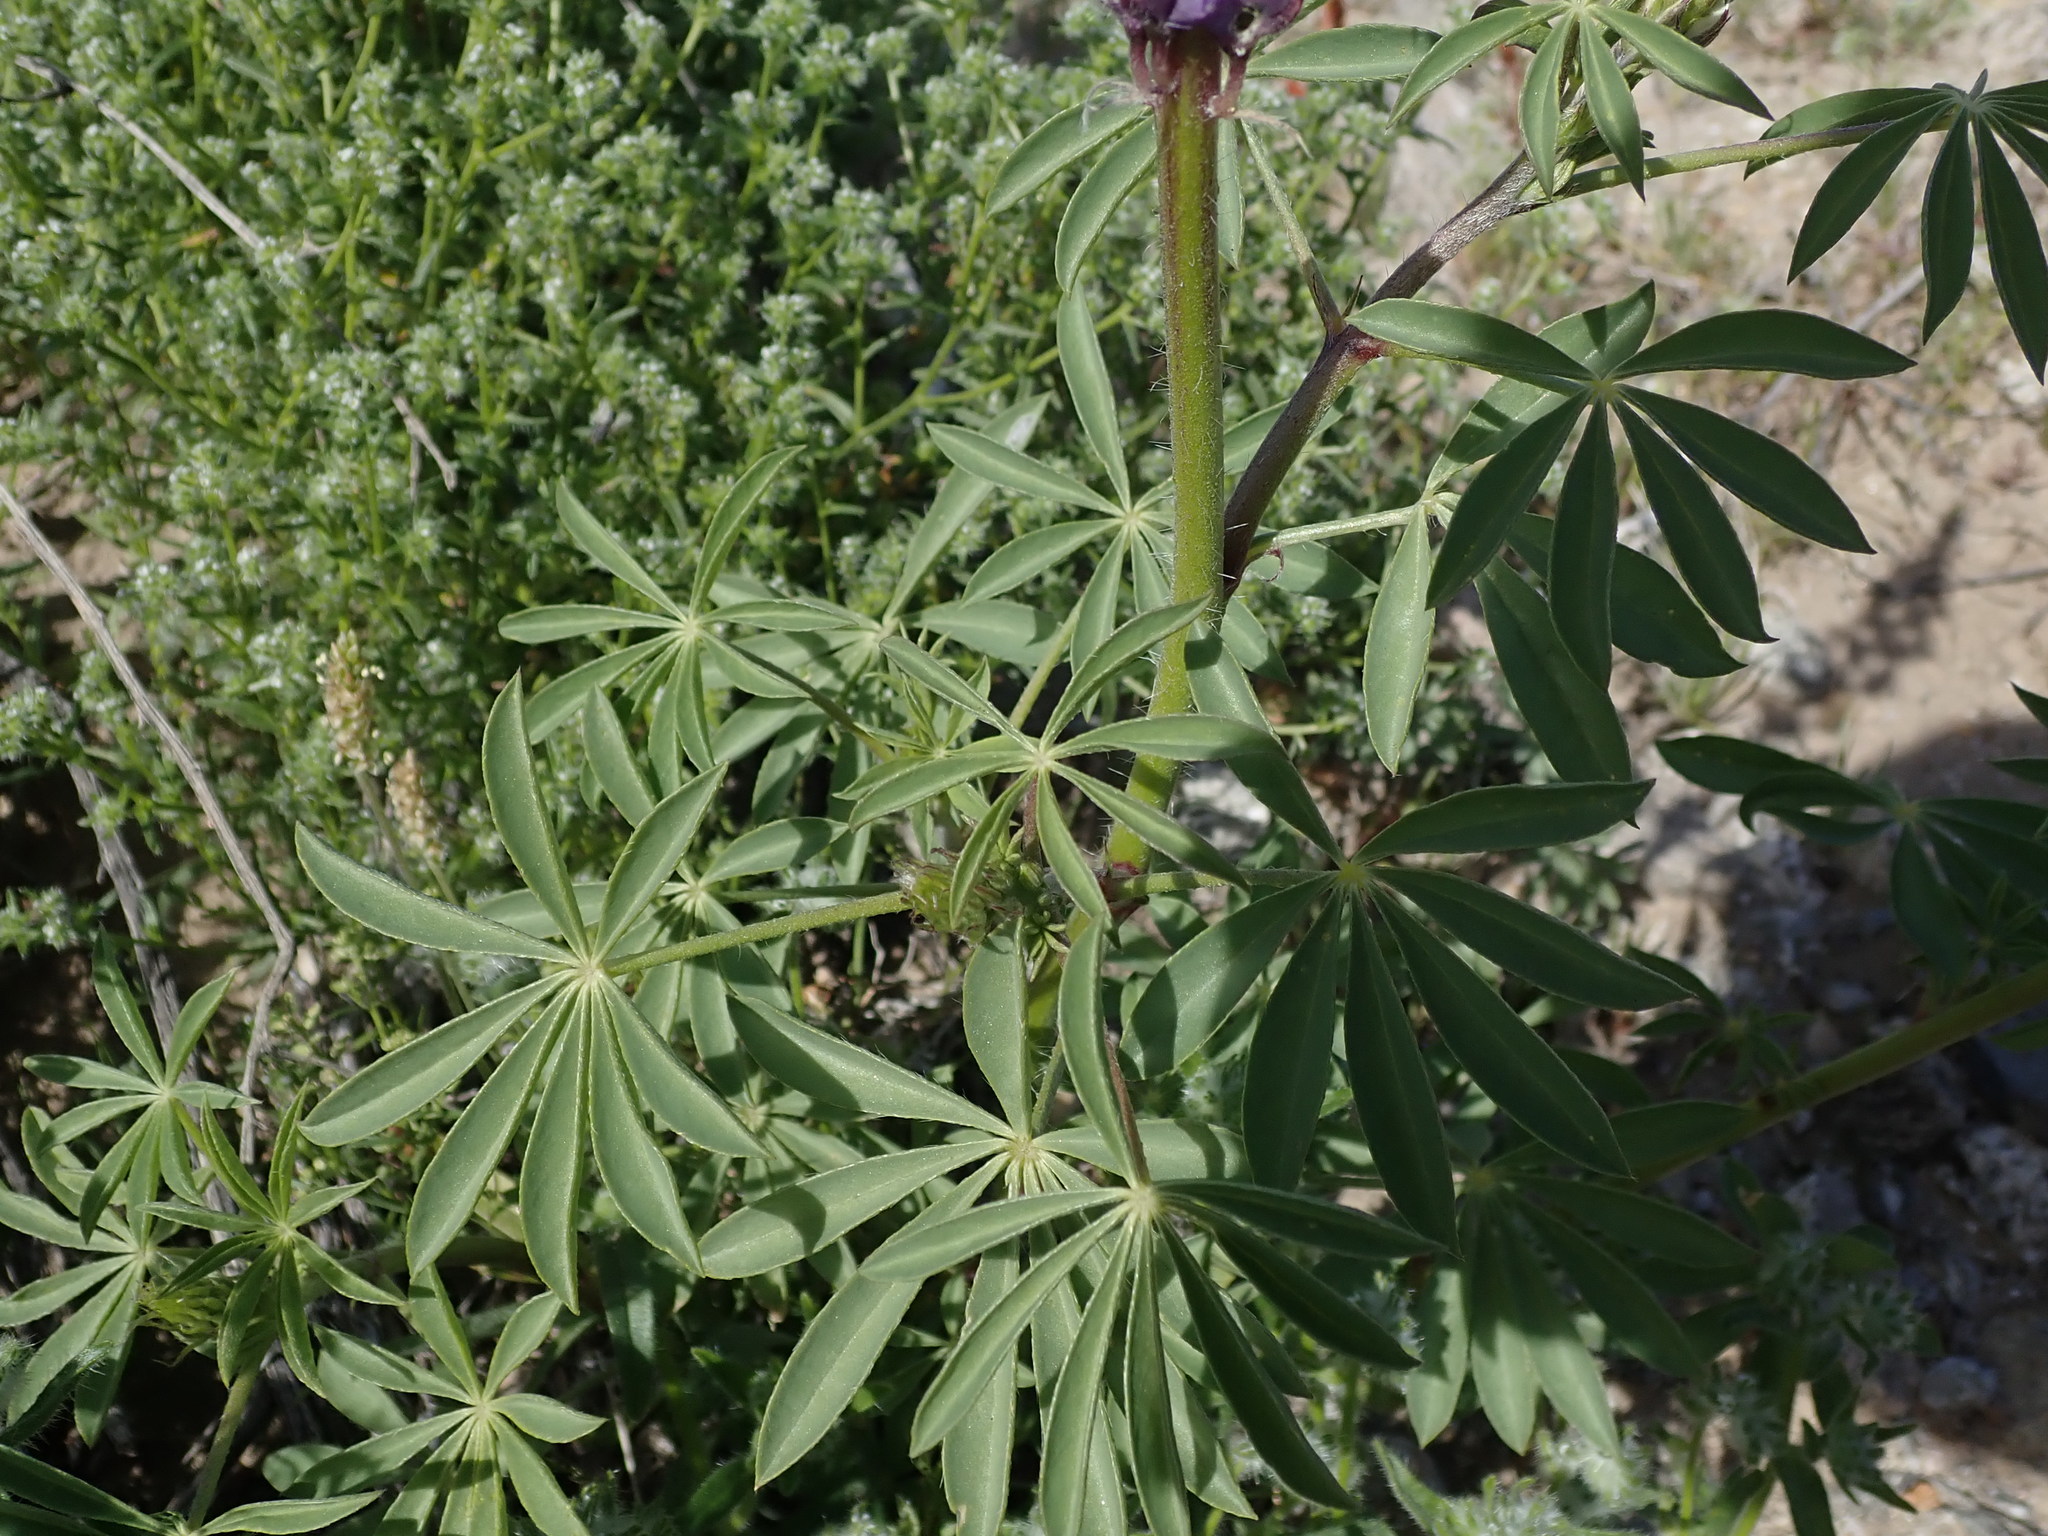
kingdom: Plantae
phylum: Tracheophyta
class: Magnoliopsida
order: Fabales
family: Fabaceae
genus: Lupinus
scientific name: Lupinus arizonicus
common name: Arizona lupine
